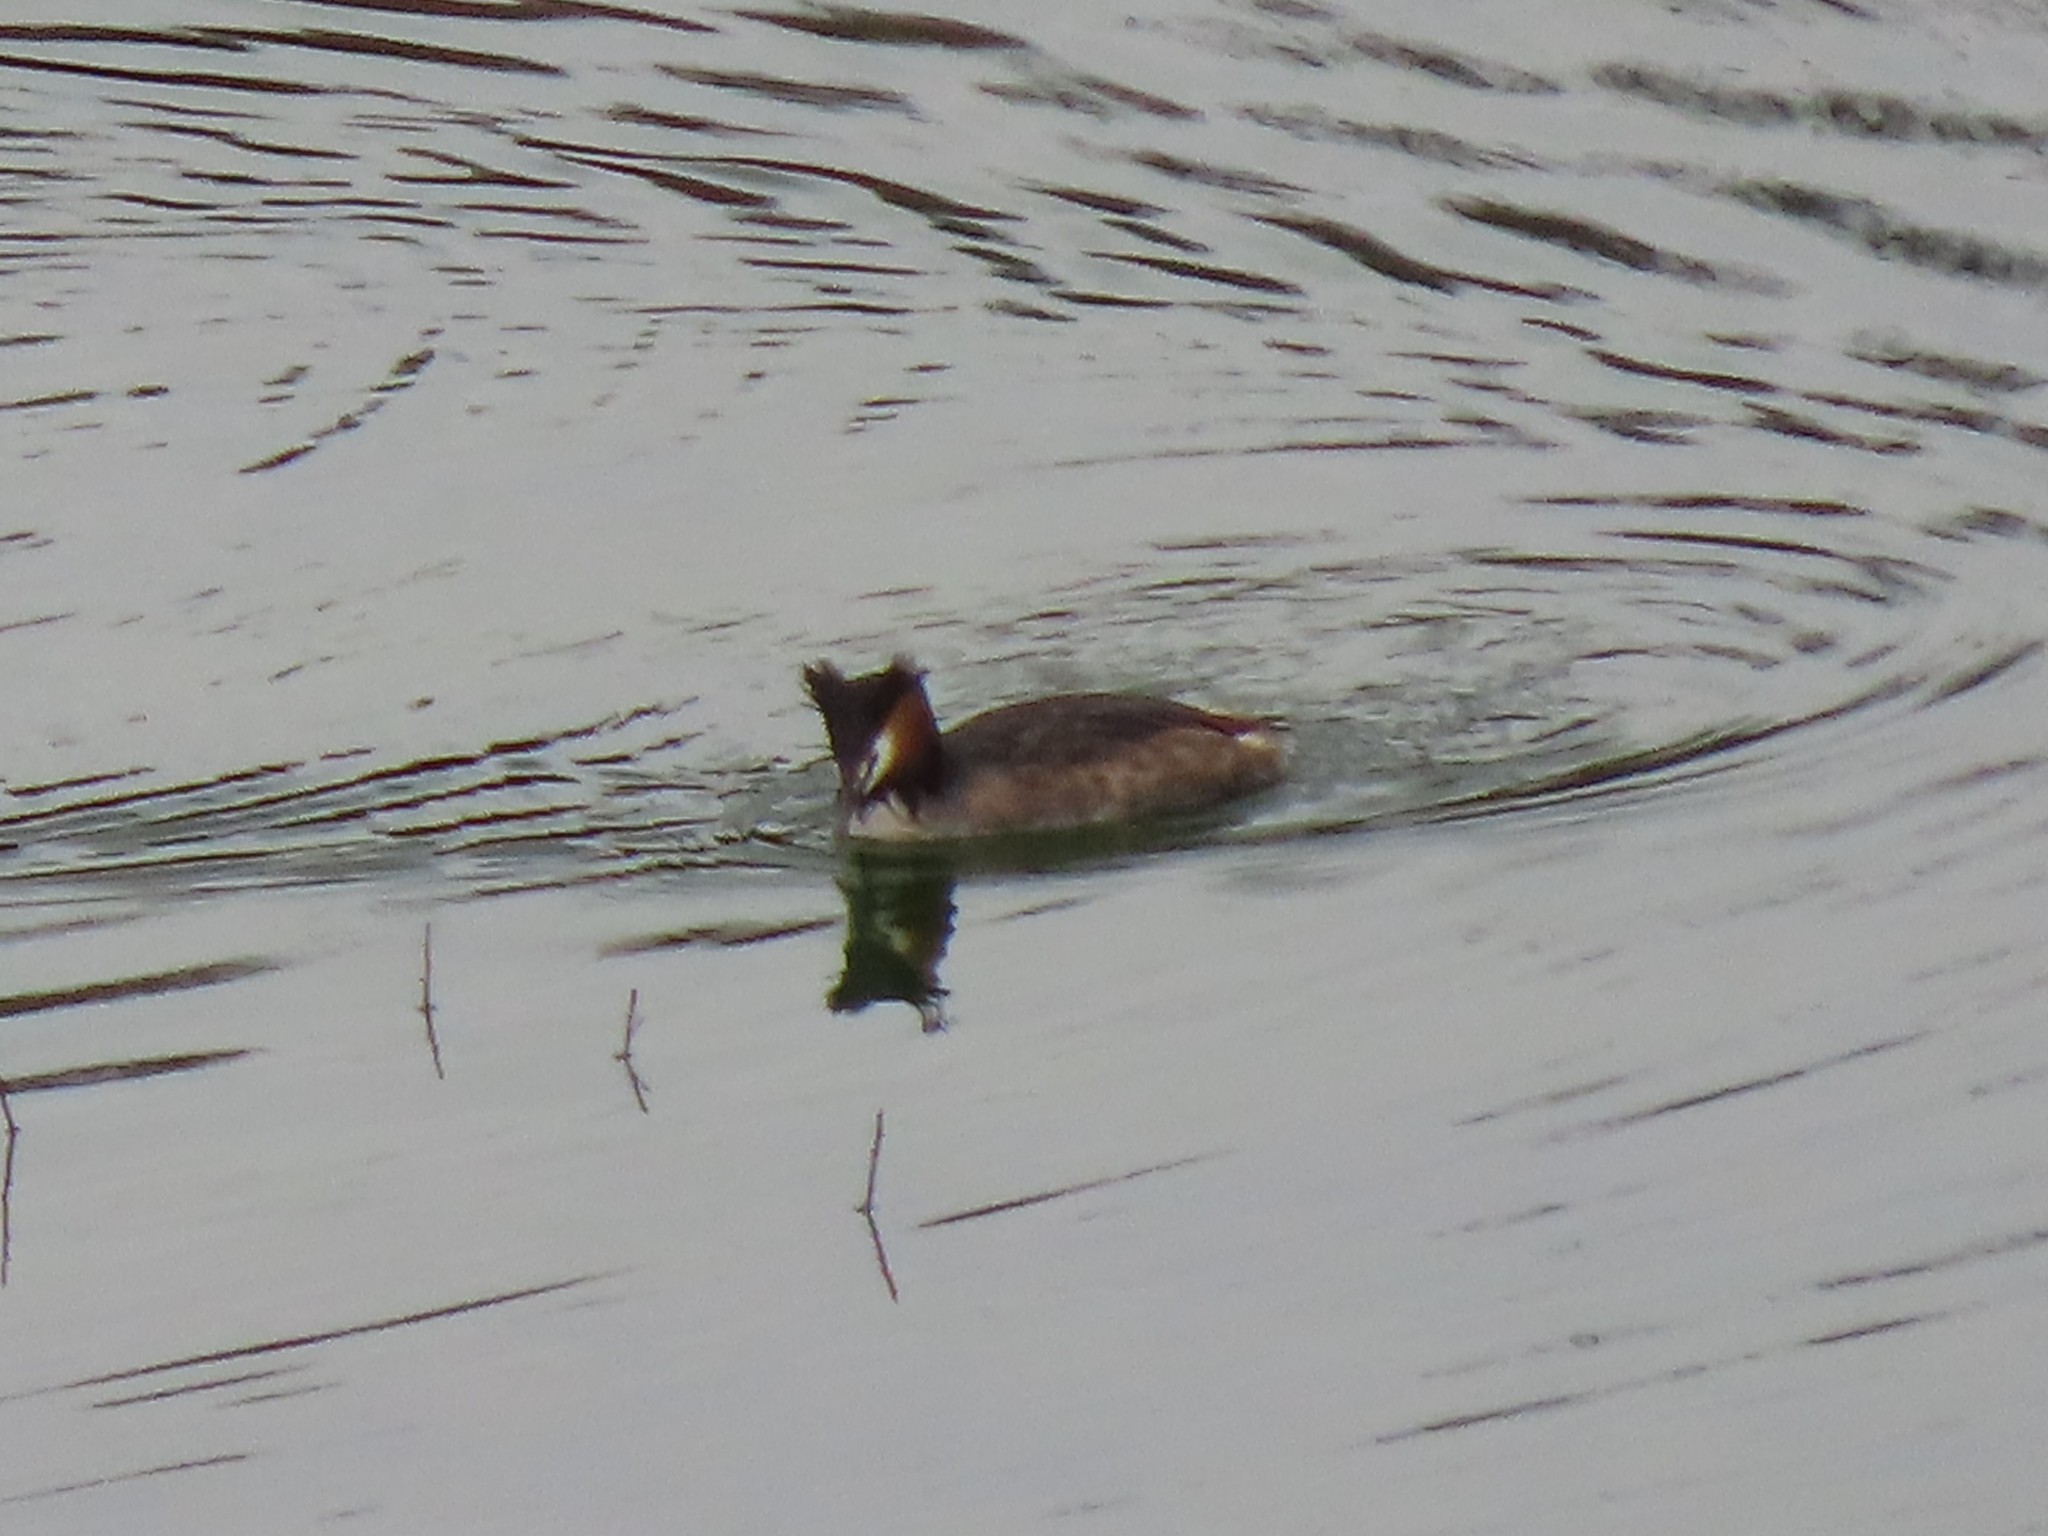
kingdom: Animalia
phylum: Chordata
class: Aves
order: Podicipediformes
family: Podicipedidae
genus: Podiceps
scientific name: Podiceps cristatus
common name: Great crested grebe
